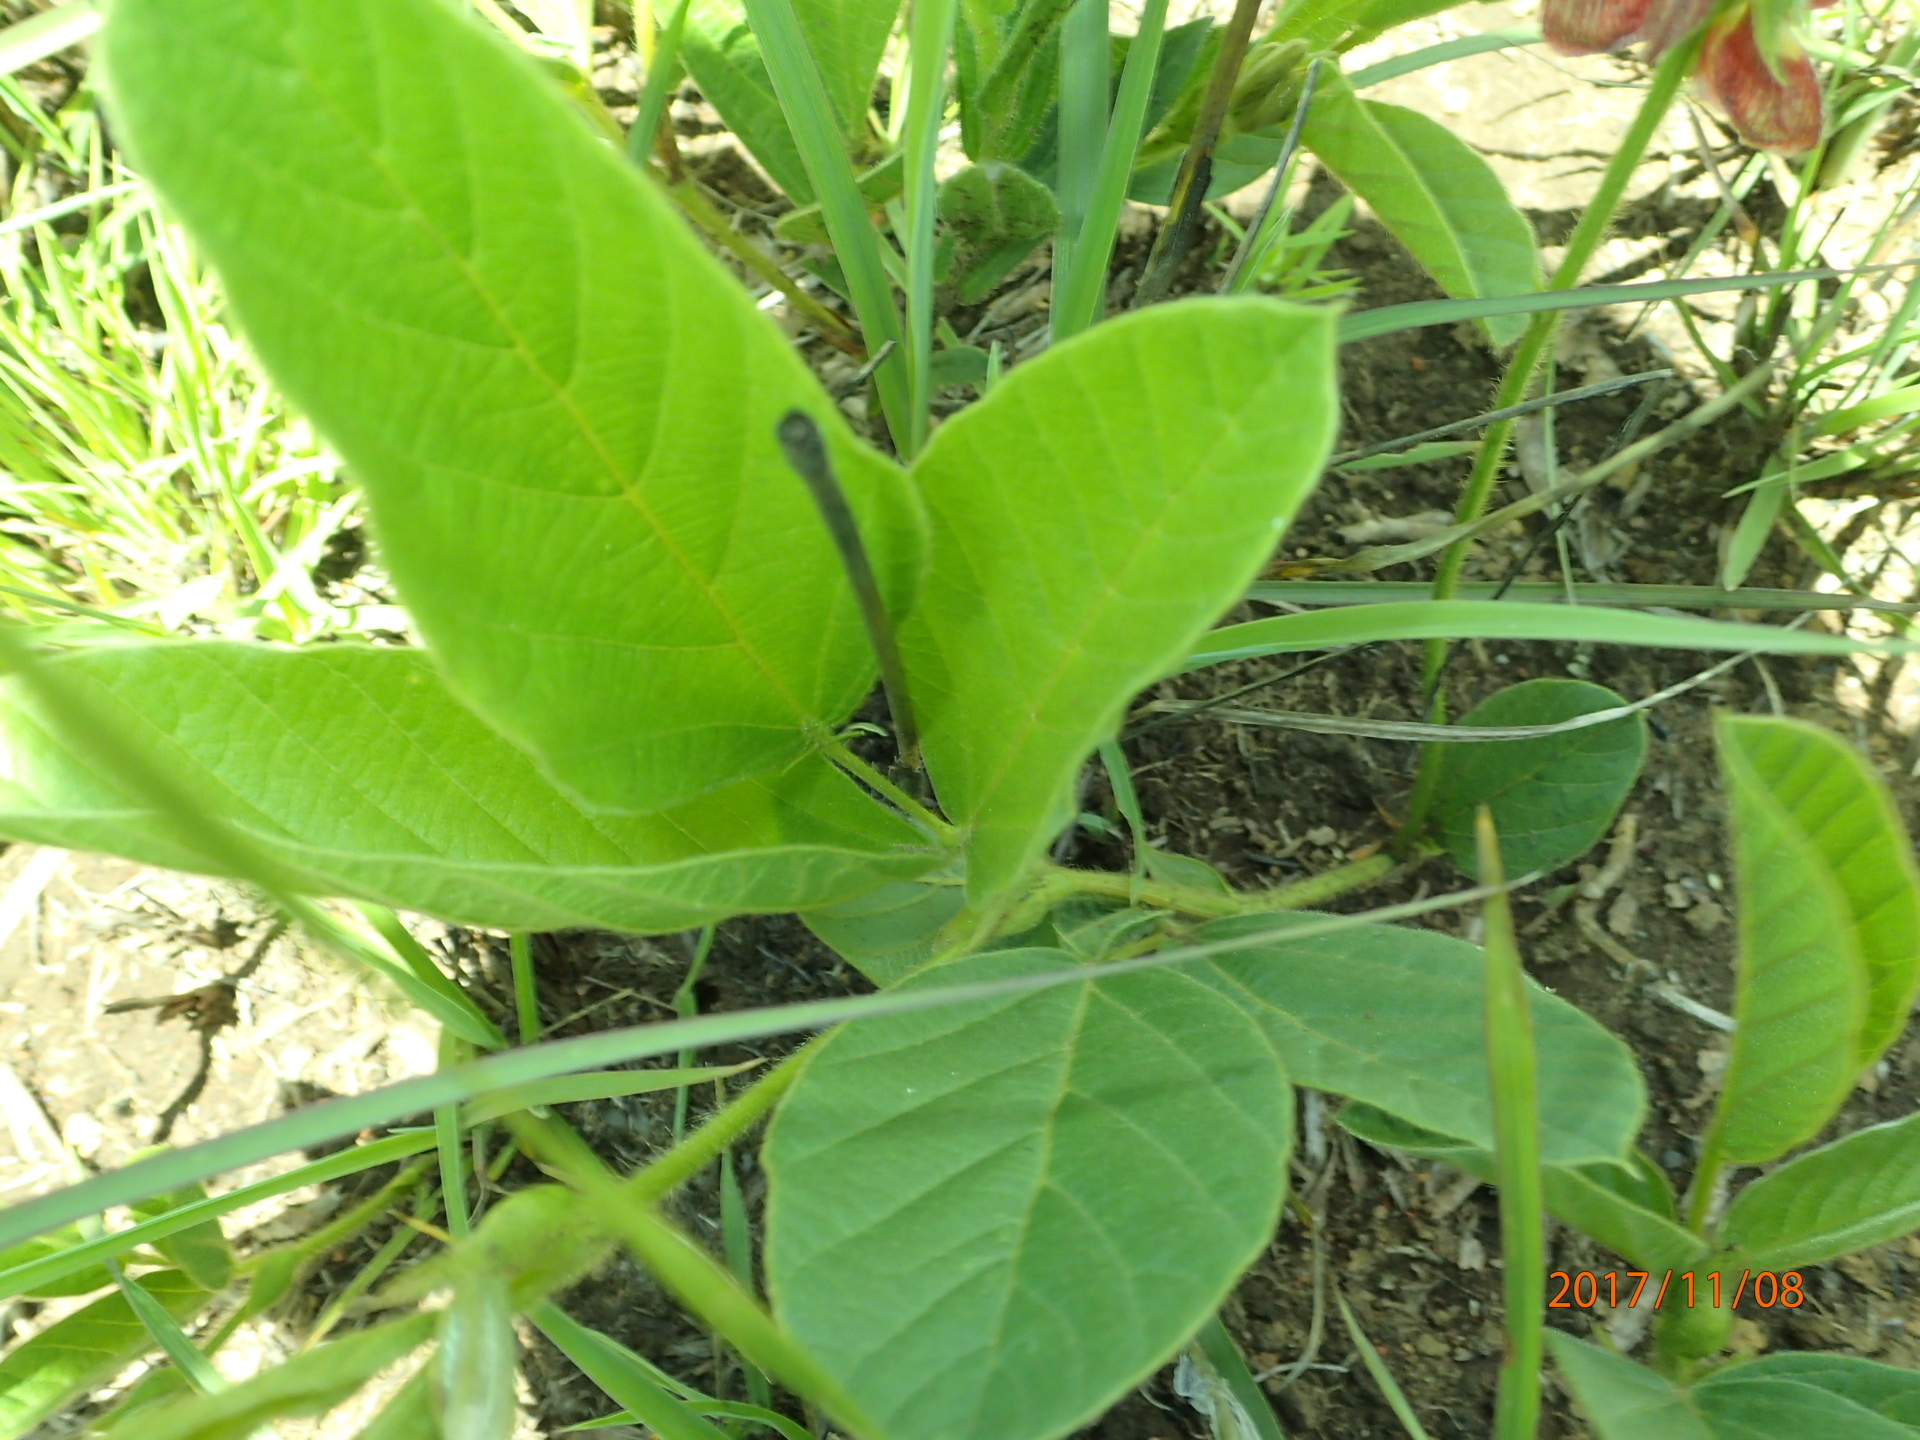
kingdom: Plantae
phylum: Tracheophyta
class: Magnoliopsida
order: Fabales
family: Fabaceae
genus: Eriosema
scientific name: Eriosema distinctum
